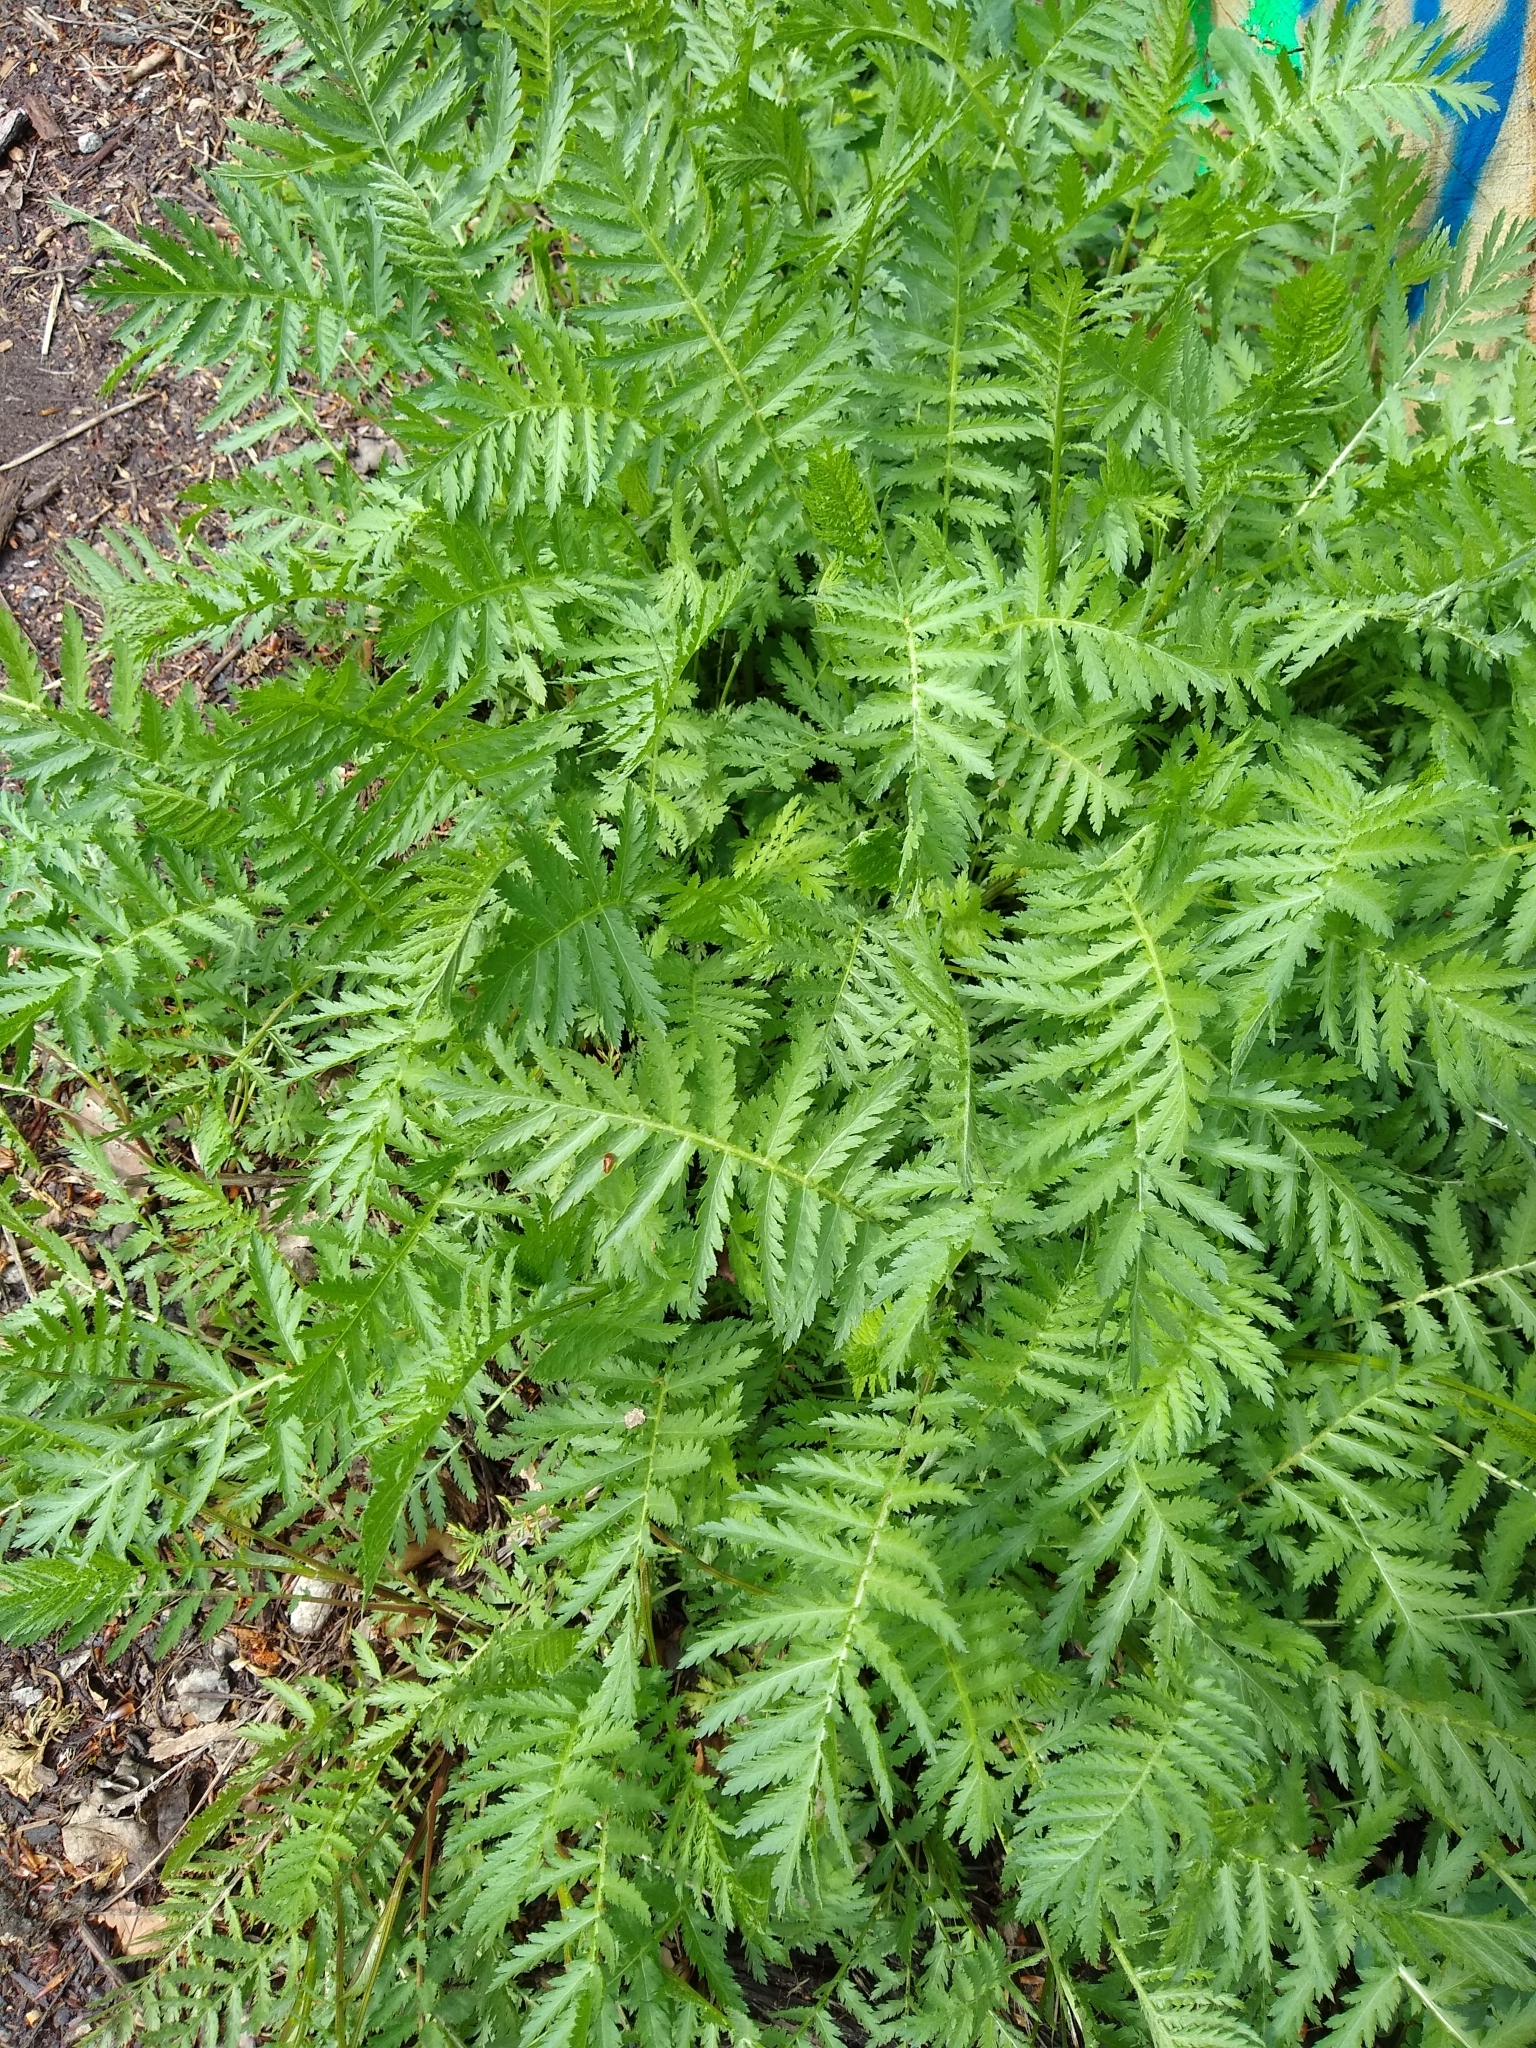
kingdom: Plantae
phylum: Tracheophyta
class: Magnoliopsida
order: Asterales
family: Asteraceae
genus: Tanacetum
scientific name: Tanacetum vulgare
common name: Common tansy
